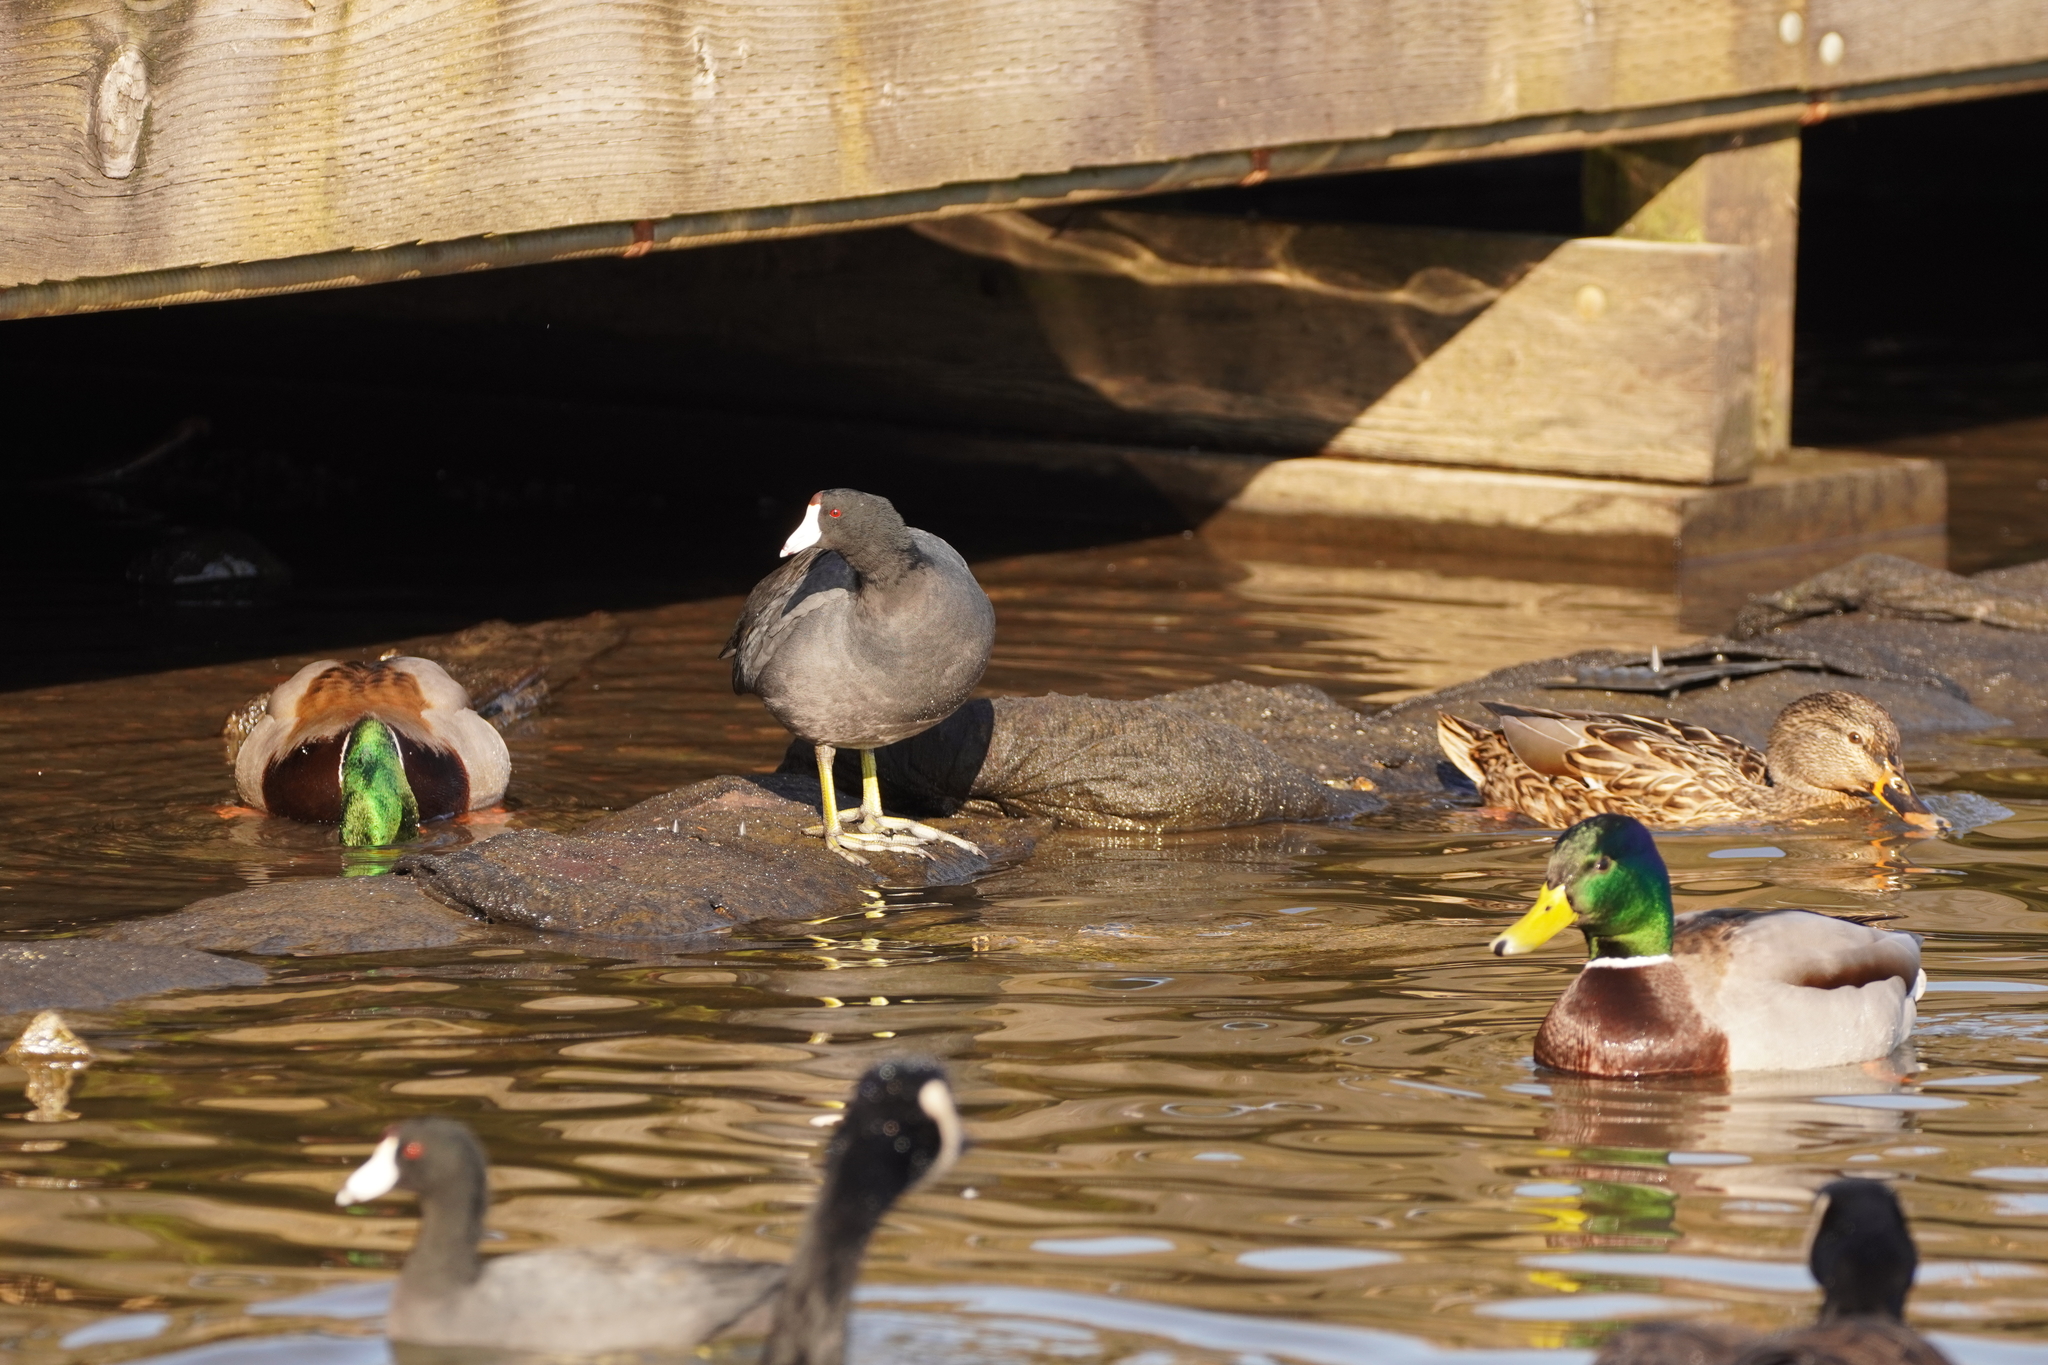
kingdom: Animalia
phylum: Chordata
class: Aves
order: Gruiformes
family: Rallidae
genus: Fulica
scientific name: Fulica americana
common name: American coot
